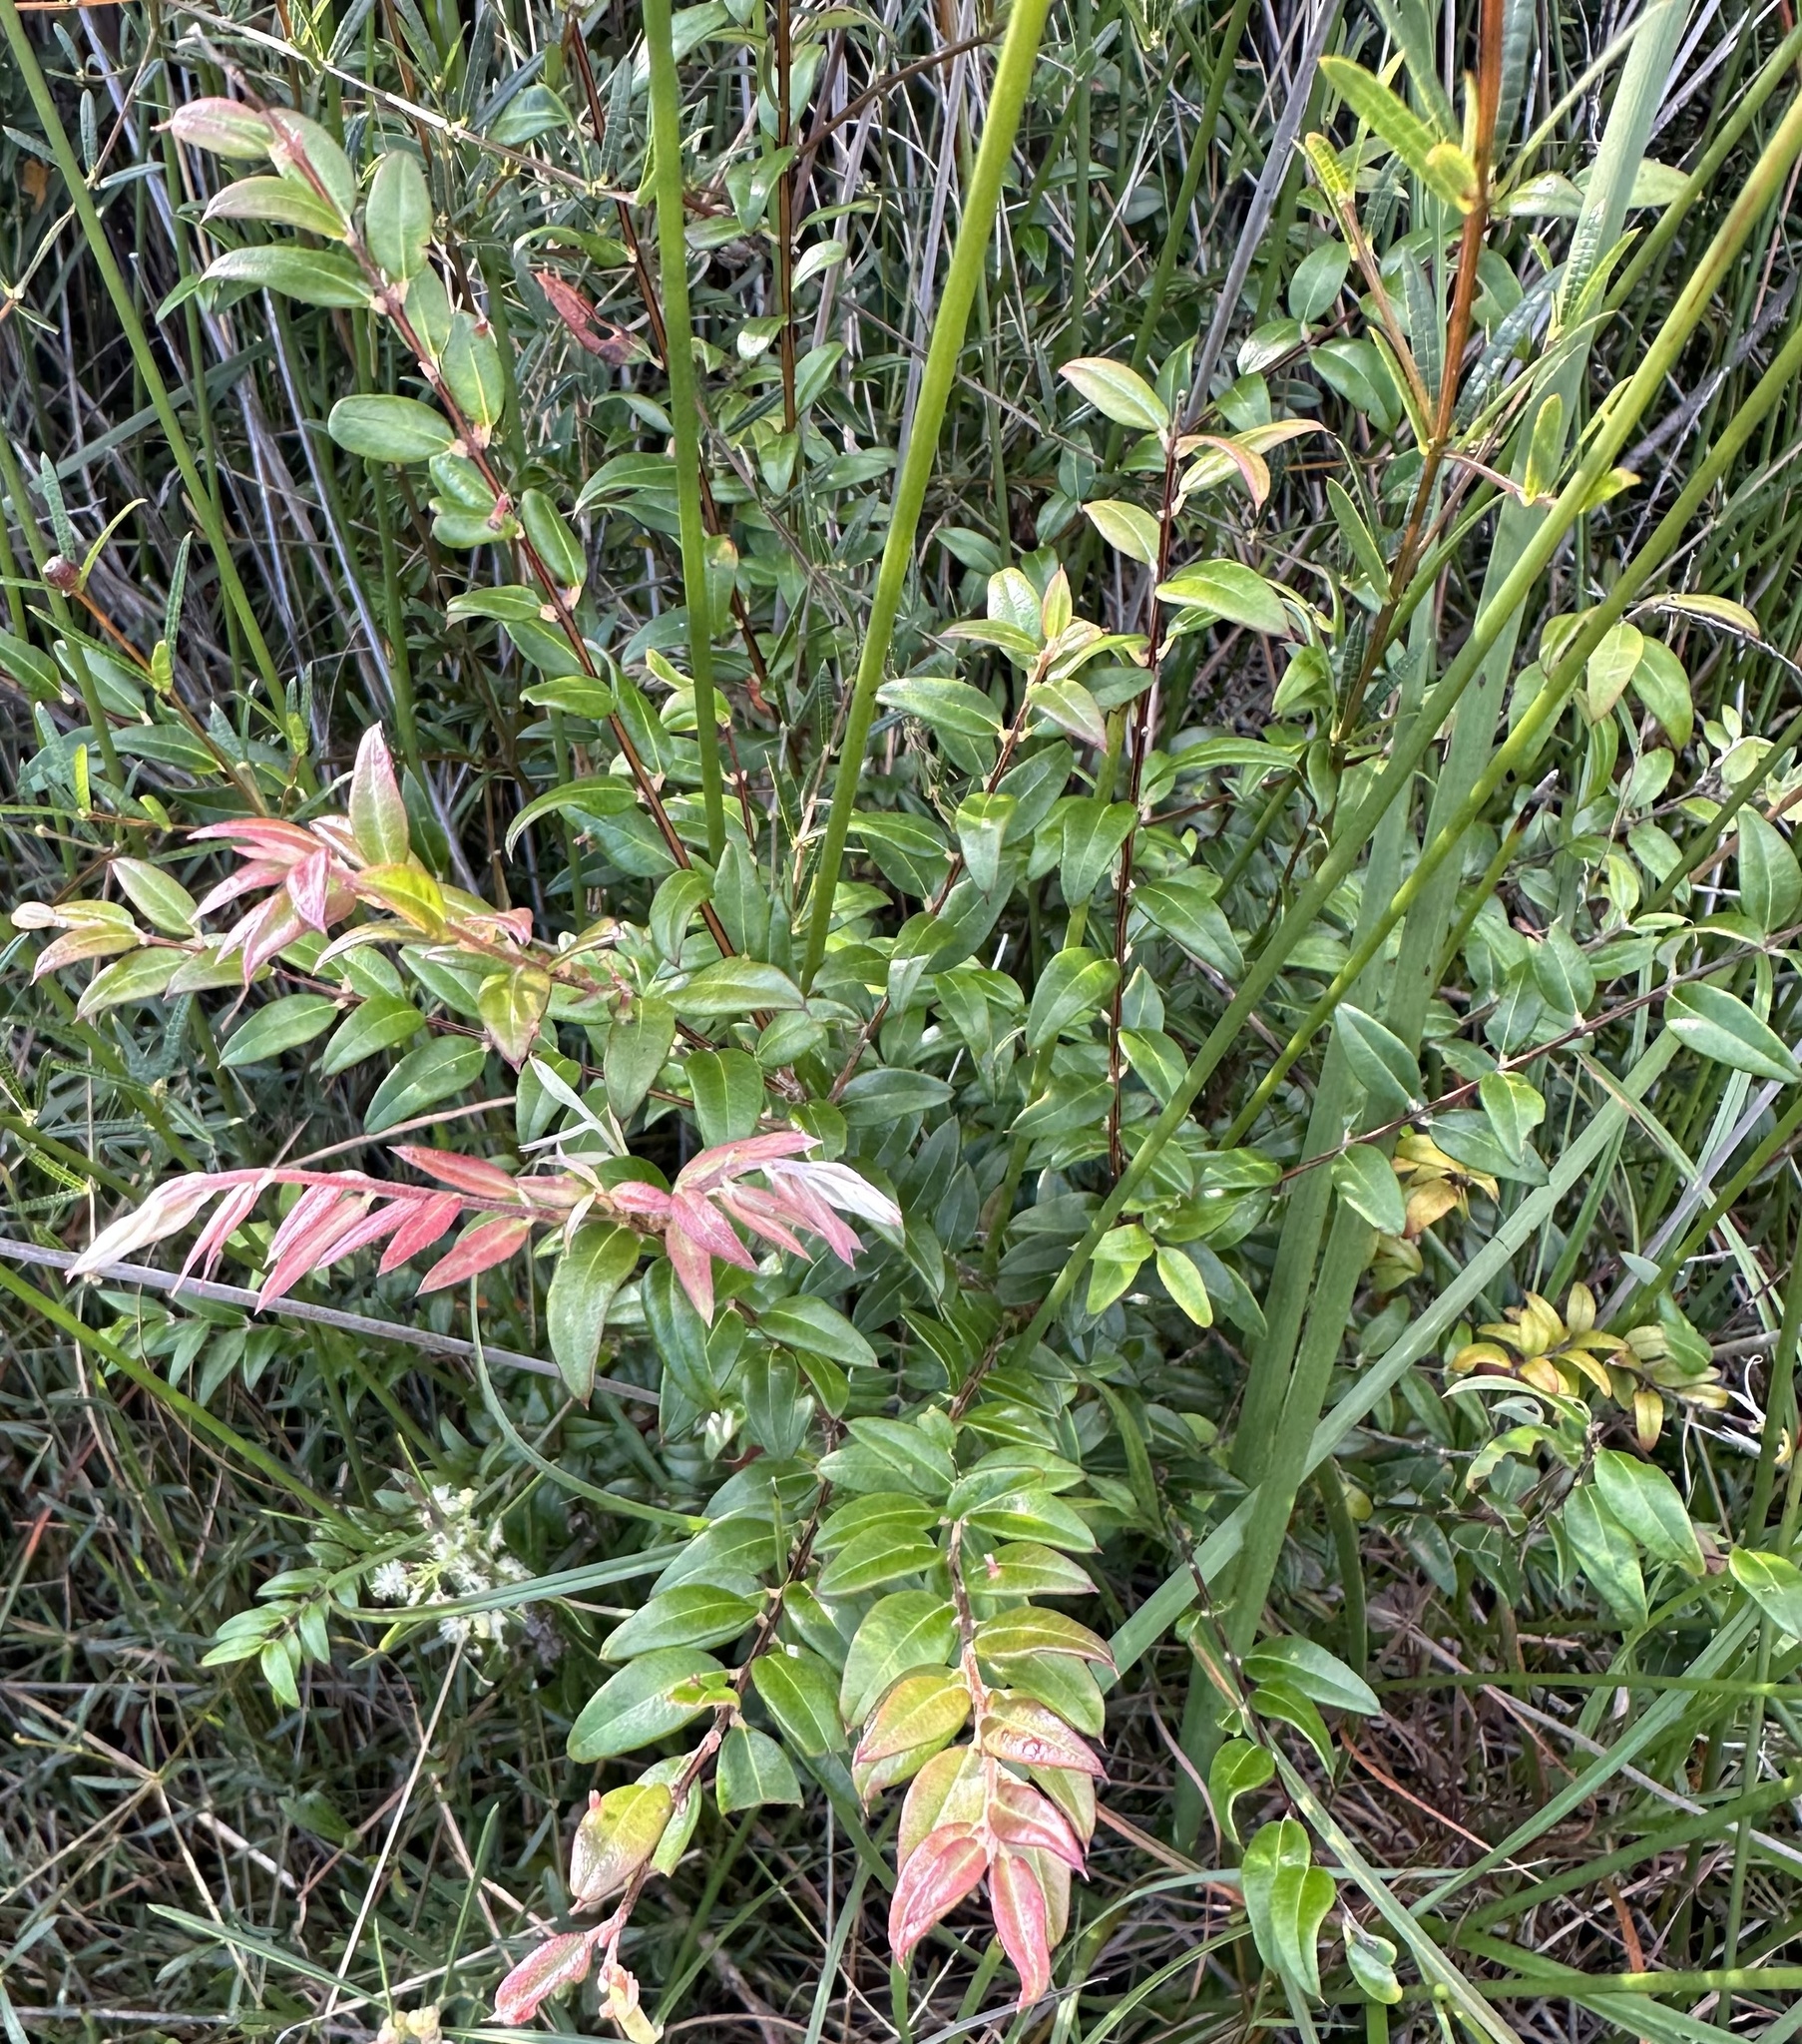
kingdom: Plantae
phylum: Tracheophyta
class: Magnoliopsida
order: Myrtales
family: Myrtaceae
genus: Austromyrtus
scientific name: Austromyrtus dulcis
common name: Migden-berry
